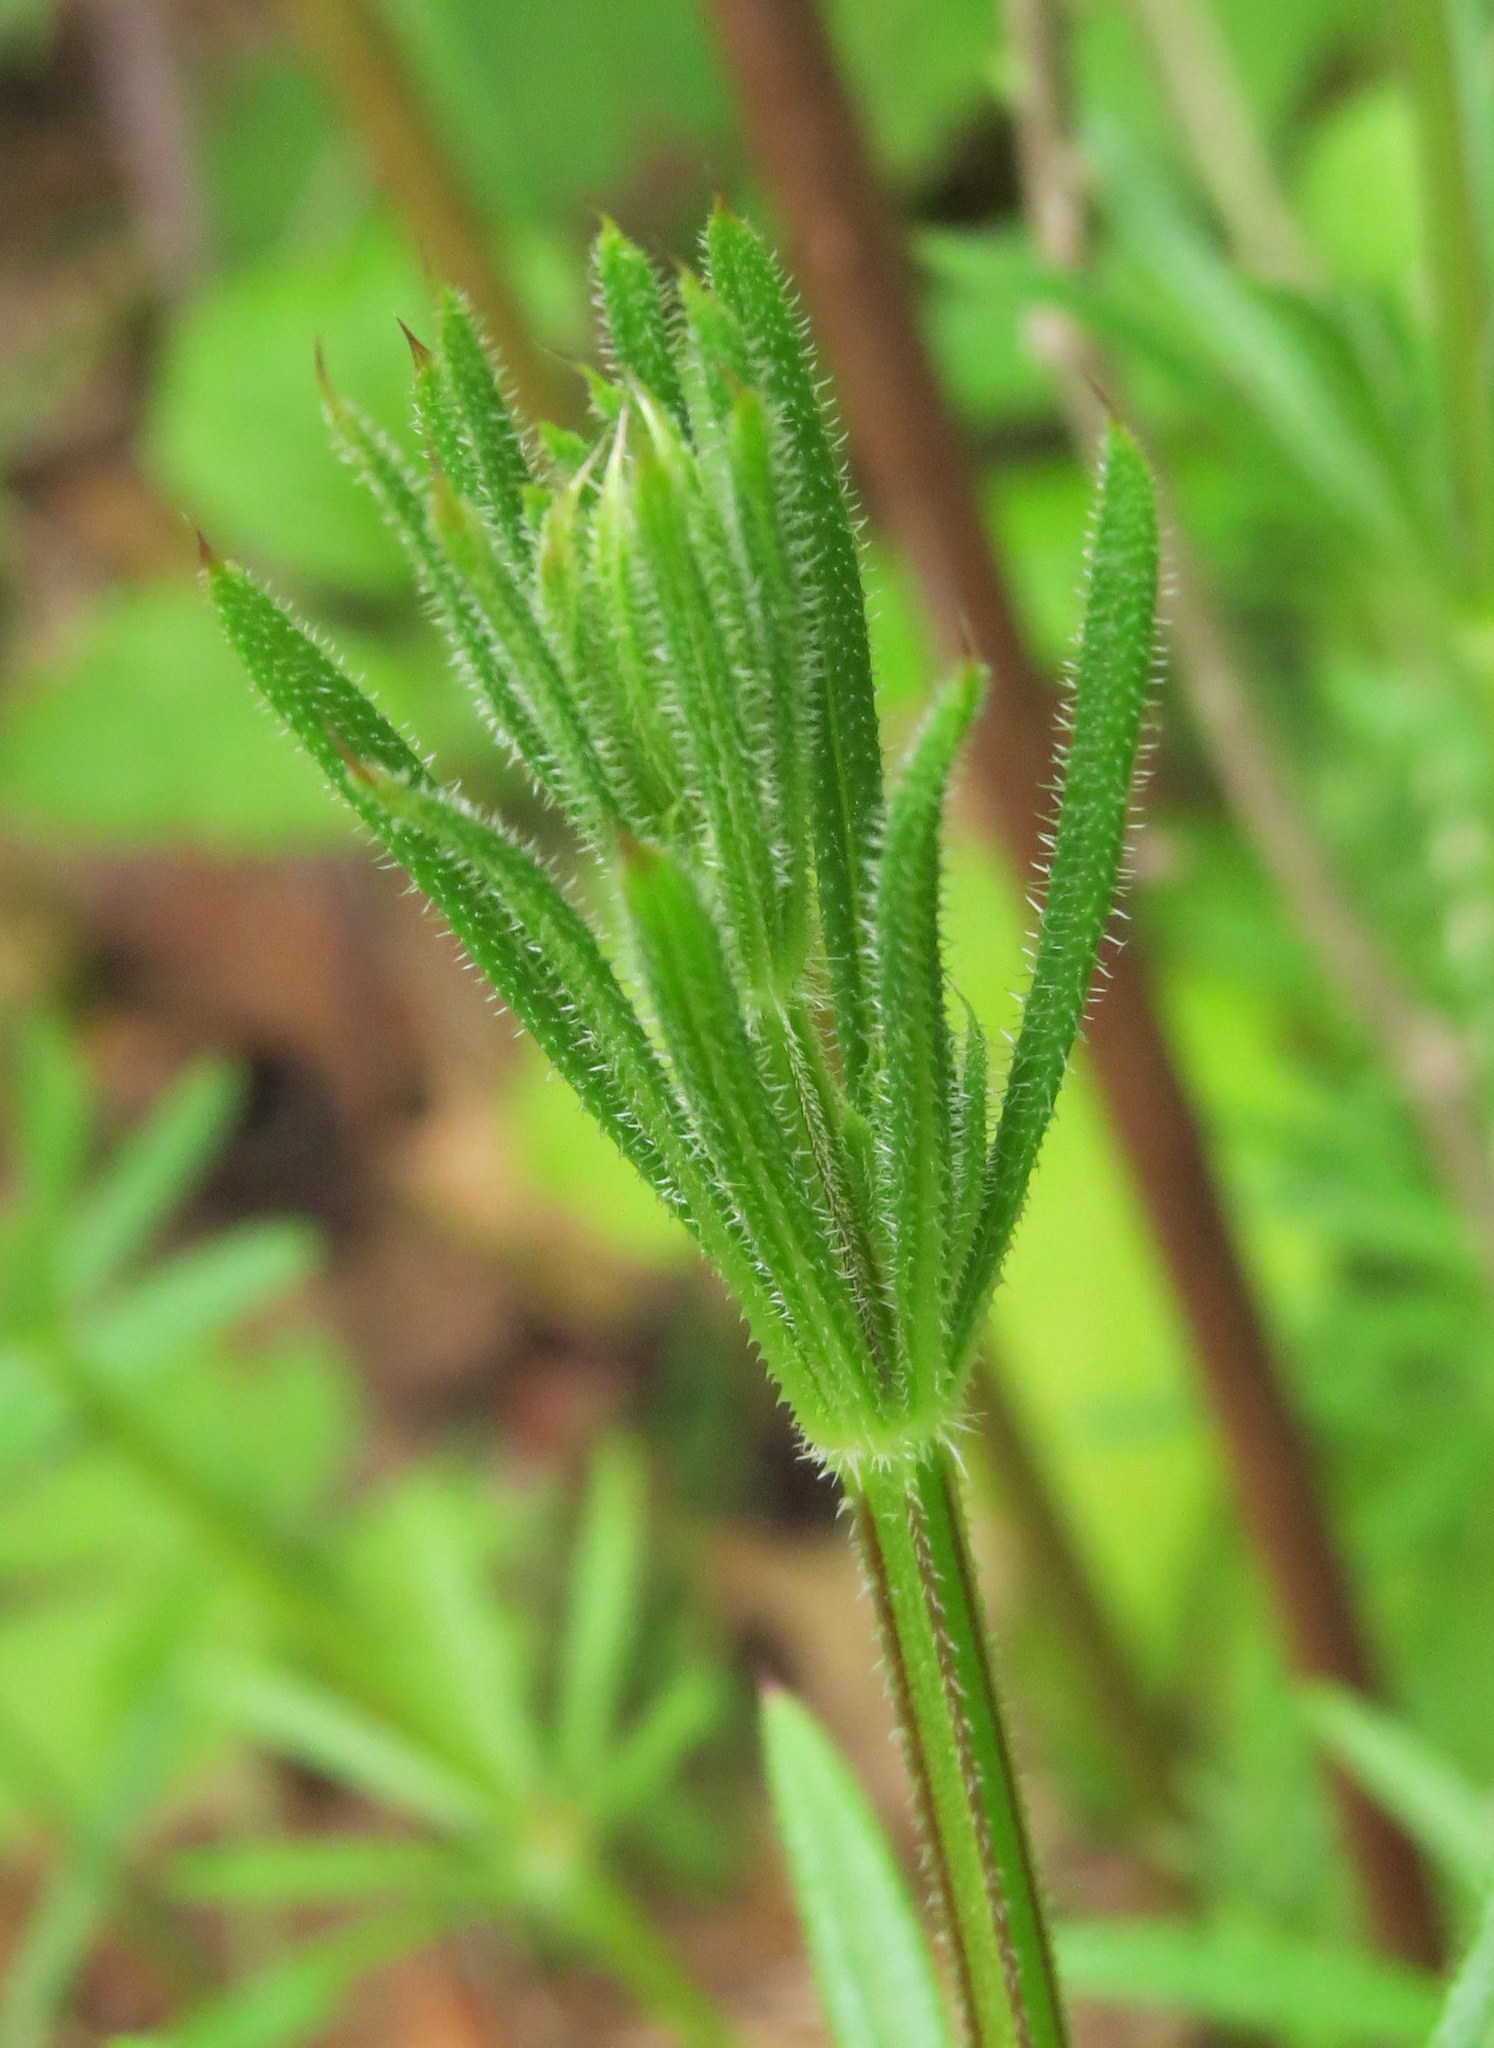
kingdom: Plantae
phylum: Tracheophyta
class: Magnoliopsida
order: Gentianales
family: Rubiaceae
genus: Galium
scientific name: Galium aparine
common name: Cleavers
